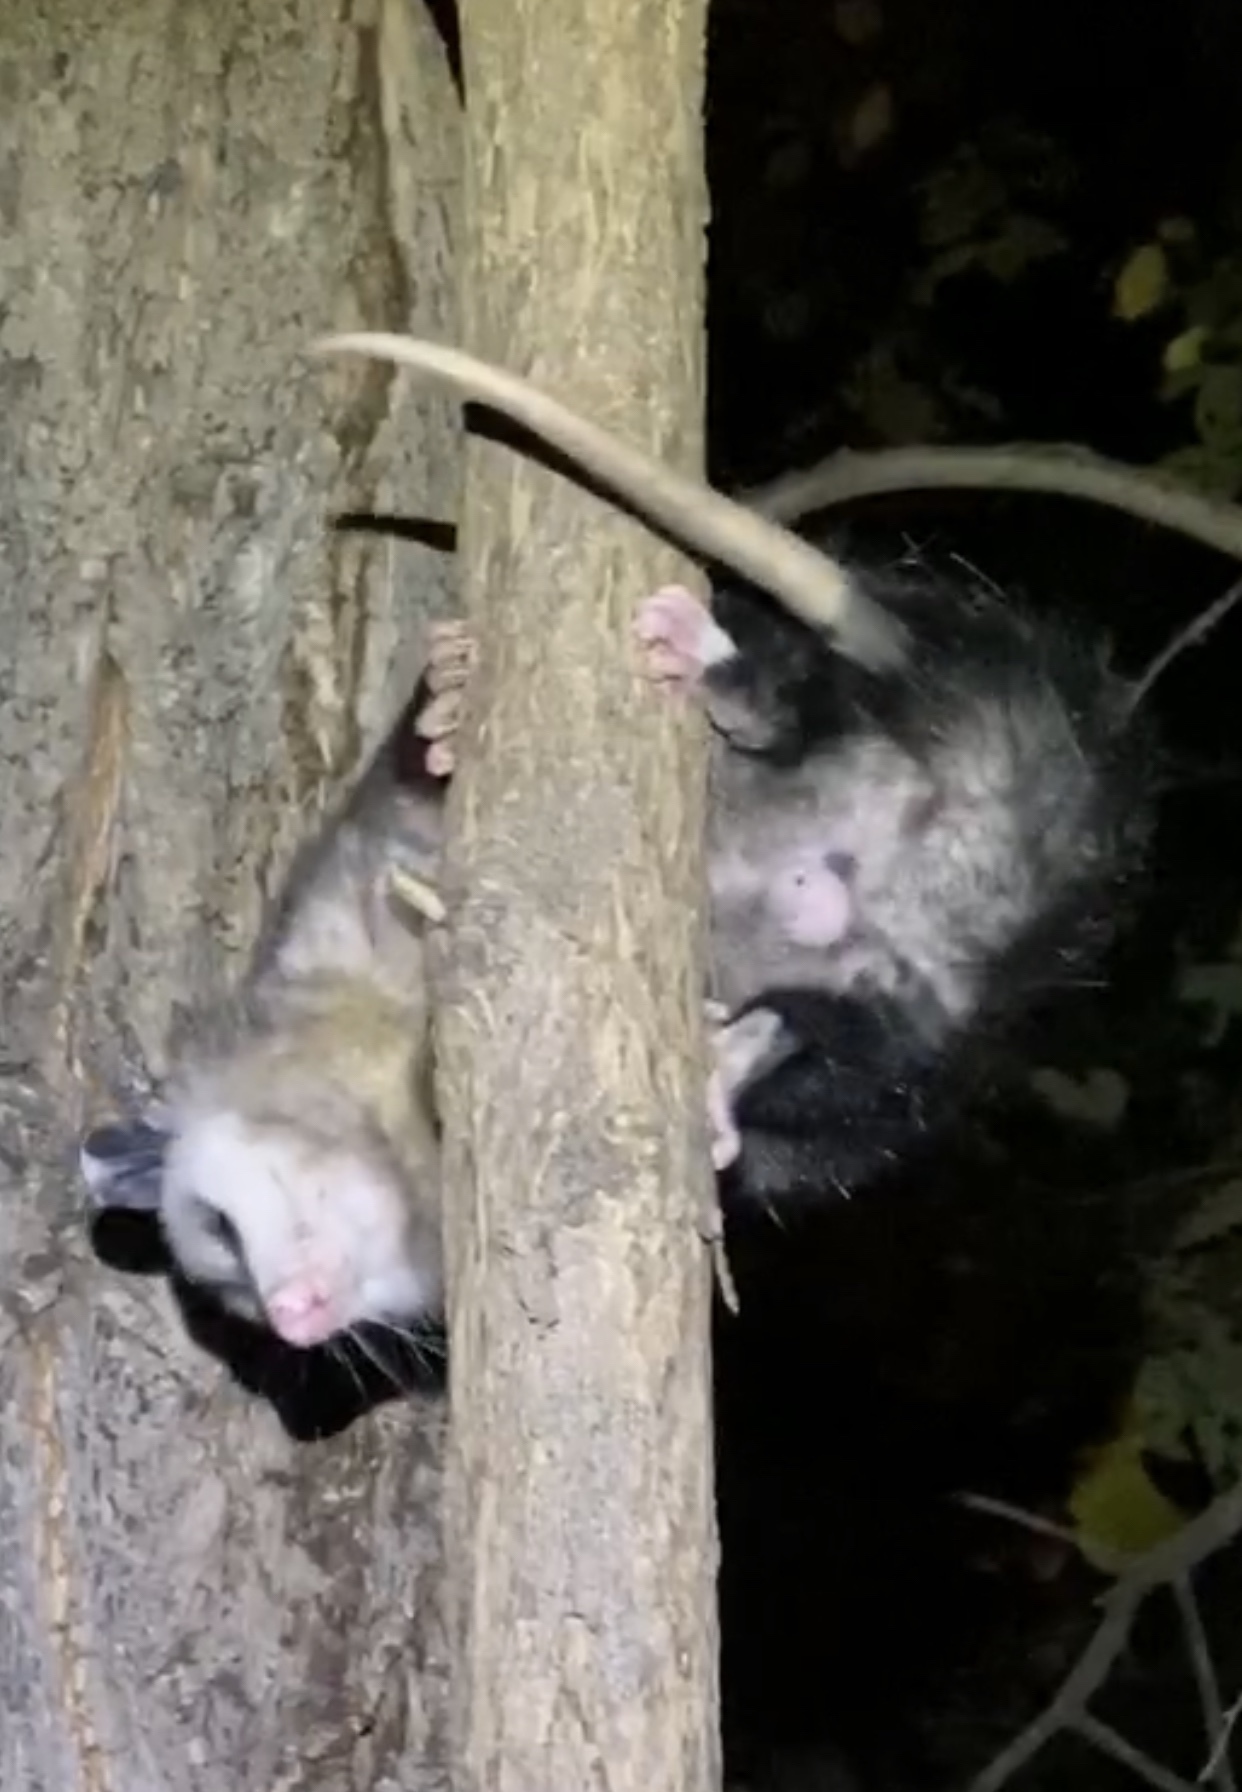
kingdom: Animalia
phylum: Chordata
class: Mammalia
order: Didelphimorphia
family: Didelphidae
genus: Didelphis
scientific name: Didelphis virginiana
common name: Virginia opossum
